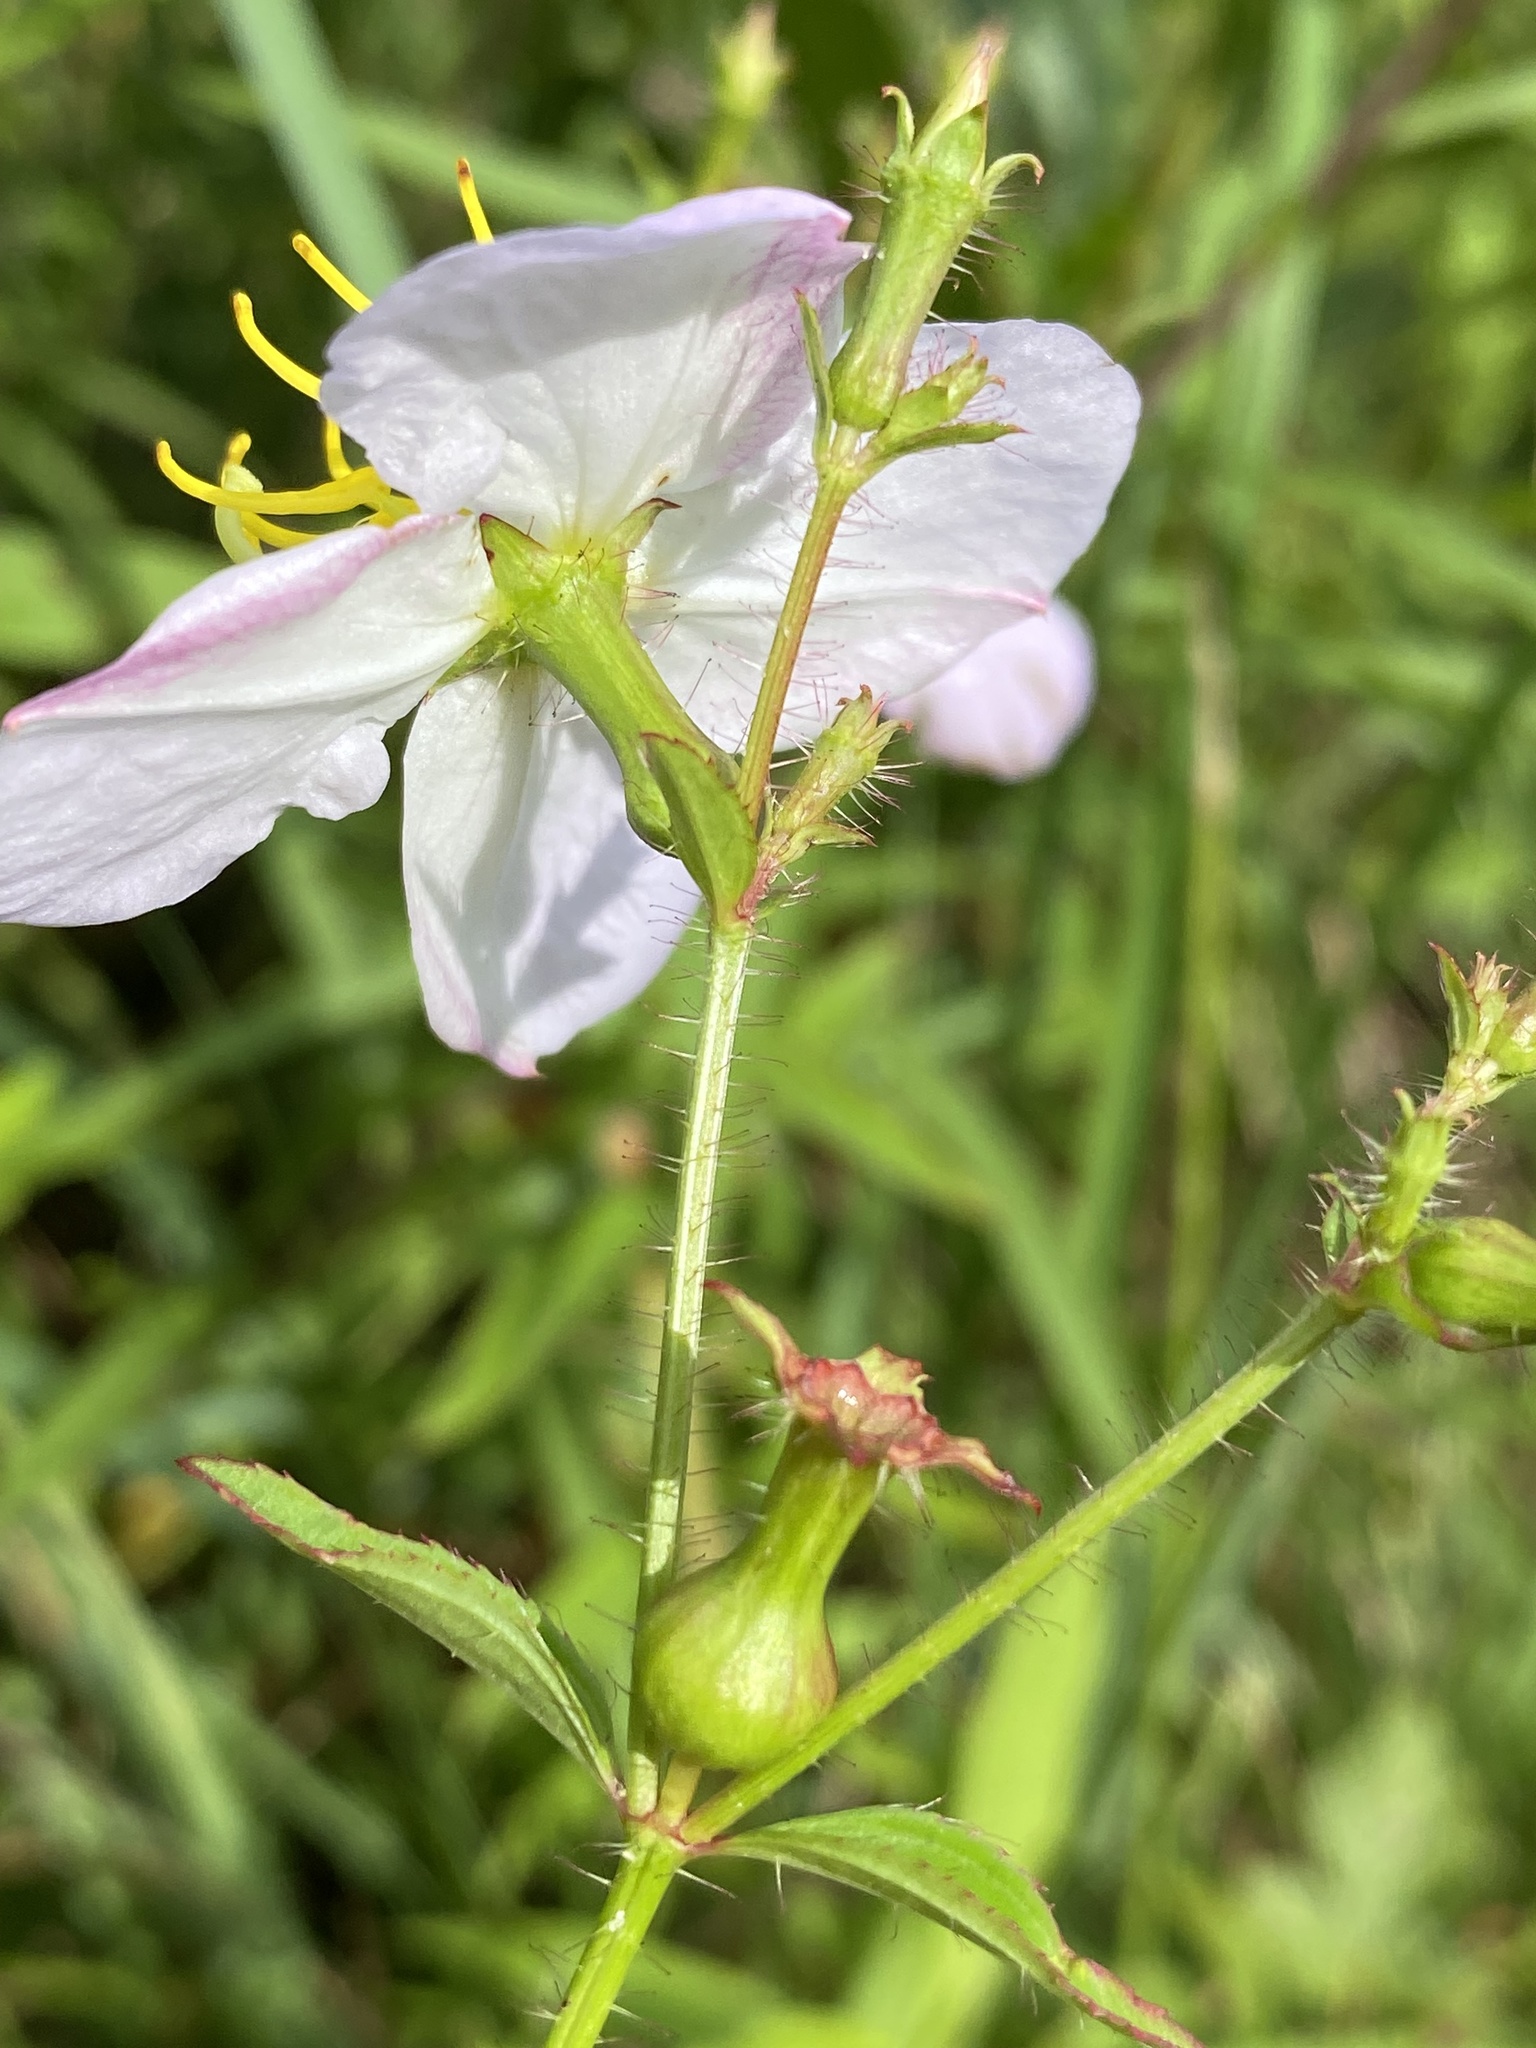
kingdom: Plantae
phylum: Tracheophyta
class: Magnoliopsida
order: Myrtales
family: Melastomataceae
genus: Rhexia
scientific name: Rhexia mariana
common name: Dull meadow-pitcher
